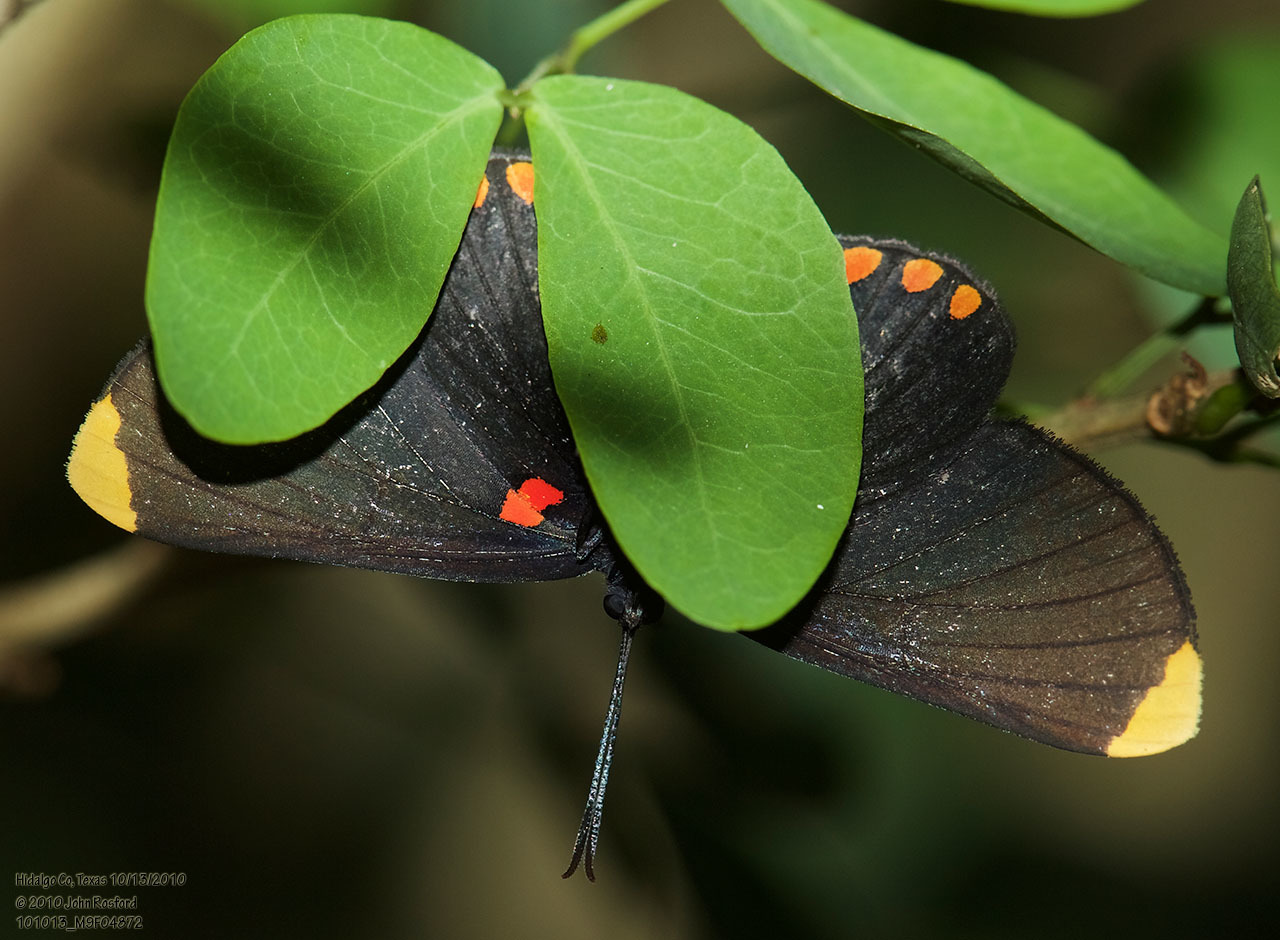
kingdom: Animalia
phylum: Arthropoda
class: Insecta
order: Lepidoptera
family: Lycaenidae
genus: Melanis
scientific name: Melanis pixe
